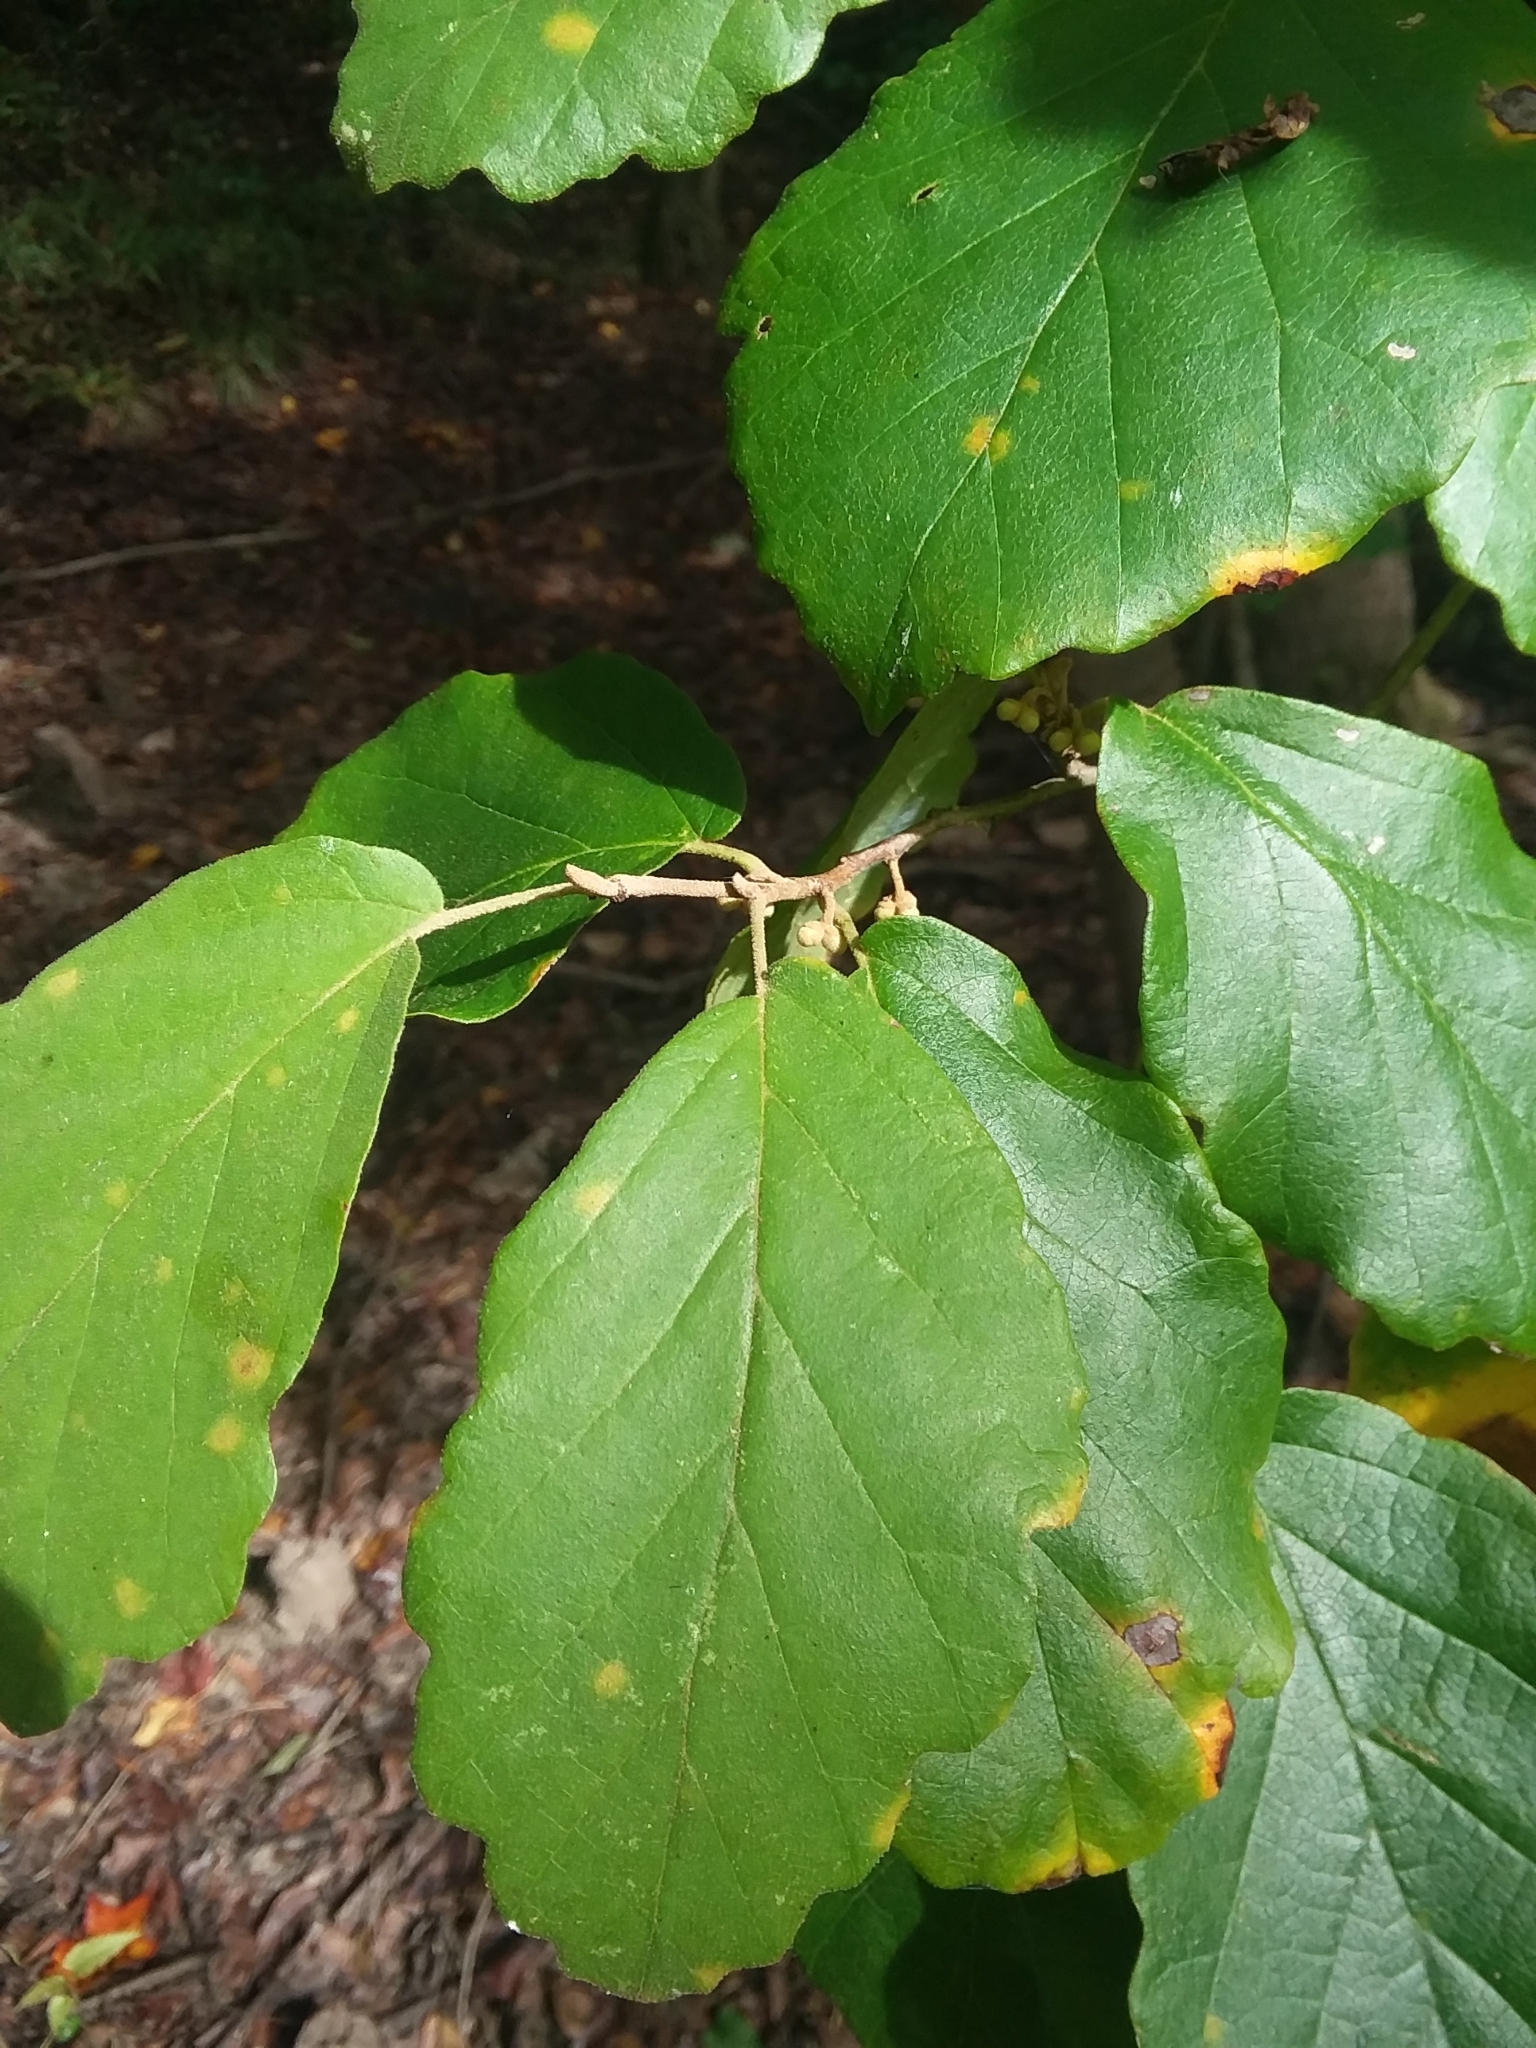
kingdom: Plantae
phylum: Tracheophyta
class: Magnoliopsida
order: Saxifragales
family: Hamamelidaceae
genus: Hamamelis
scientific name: Hamamelis virginiana
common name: Witch-hazel
